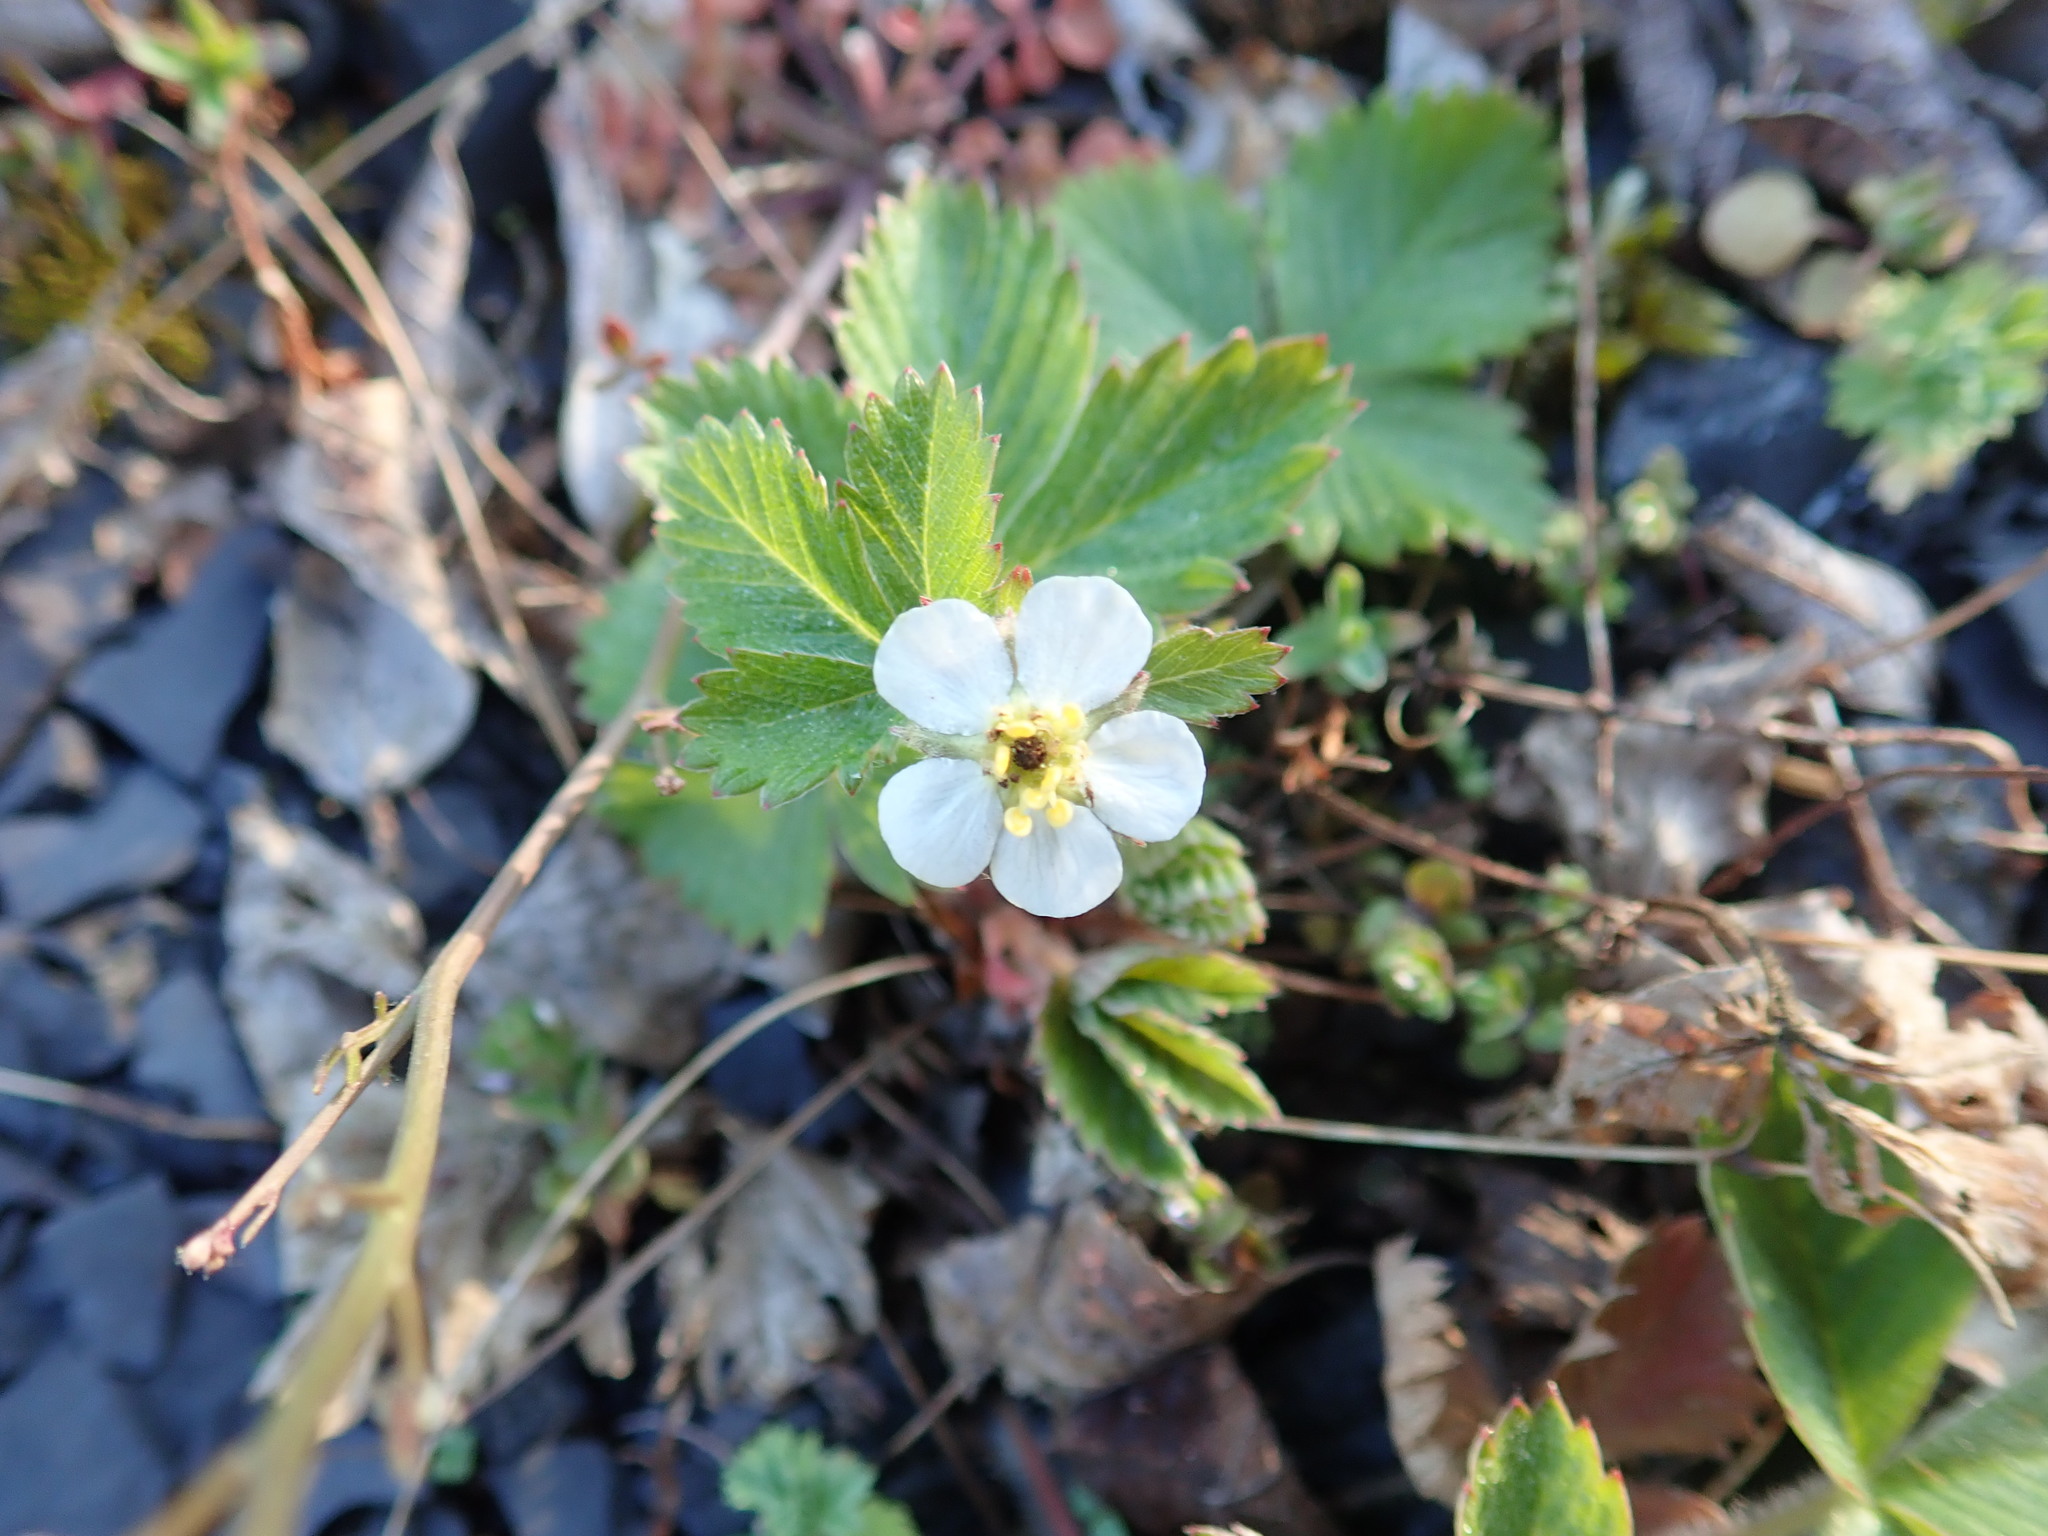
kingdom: Plantae
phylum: Tracheophyta
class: Magnoliopsida
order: Rosales
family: Rosaceae
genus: Fragaria
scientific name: Fragaria vesca
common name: Wild strawberry
